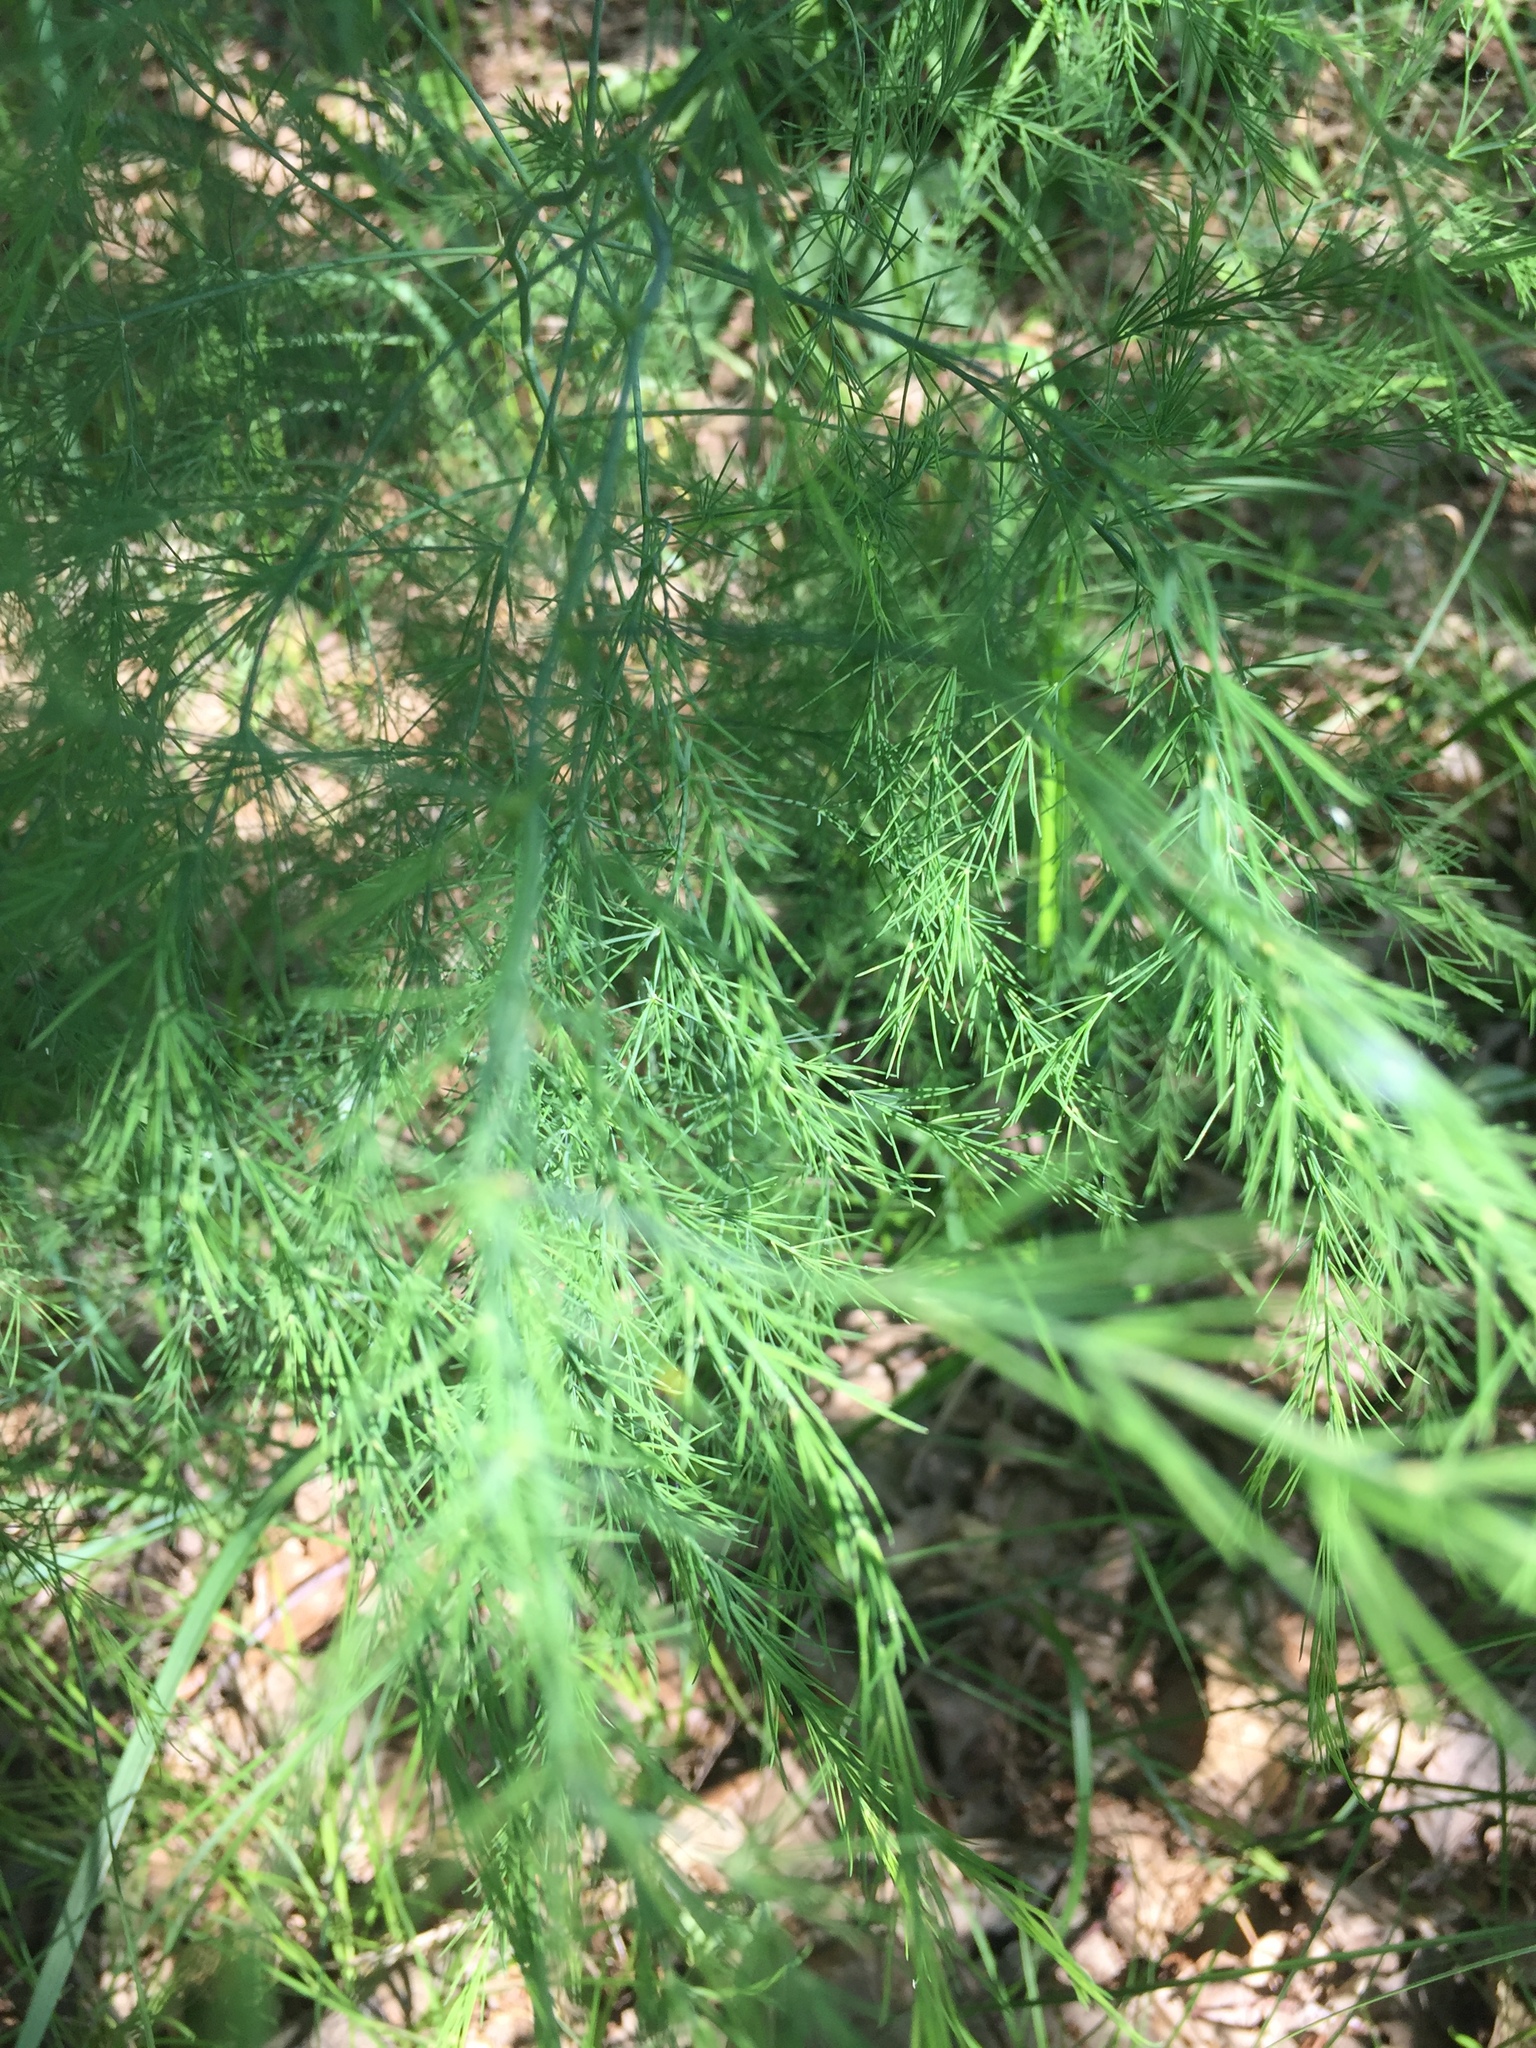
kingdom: Plantae
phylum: Tracheophyta
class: Liliopsida
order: Asparagales
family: Asparagaceae
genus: Asparagus
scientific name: Asparagus officinalis
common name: Garden asparagus
